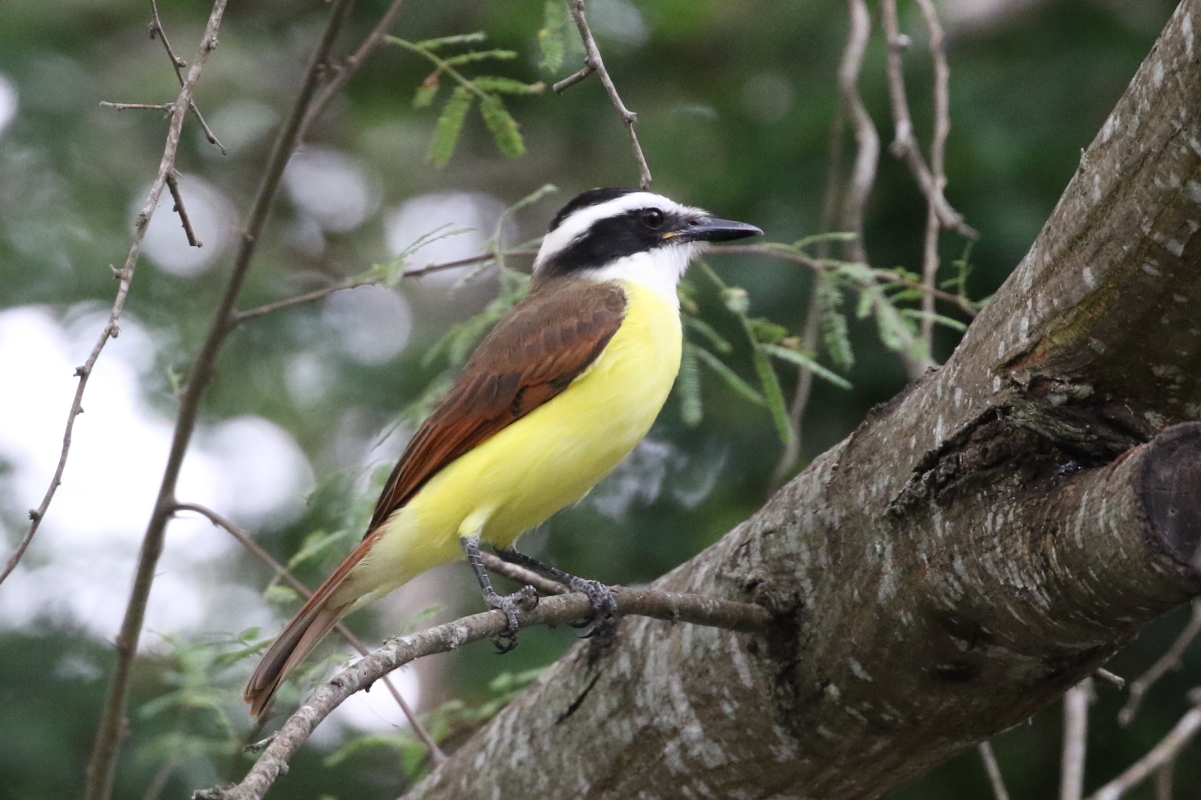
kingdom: Animalia
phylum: Chordata
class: Aves
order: Passeriformes
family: Tyrannidae
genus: Pitangus
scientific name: Pitangus sulphuratus
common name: Great kiskadee
